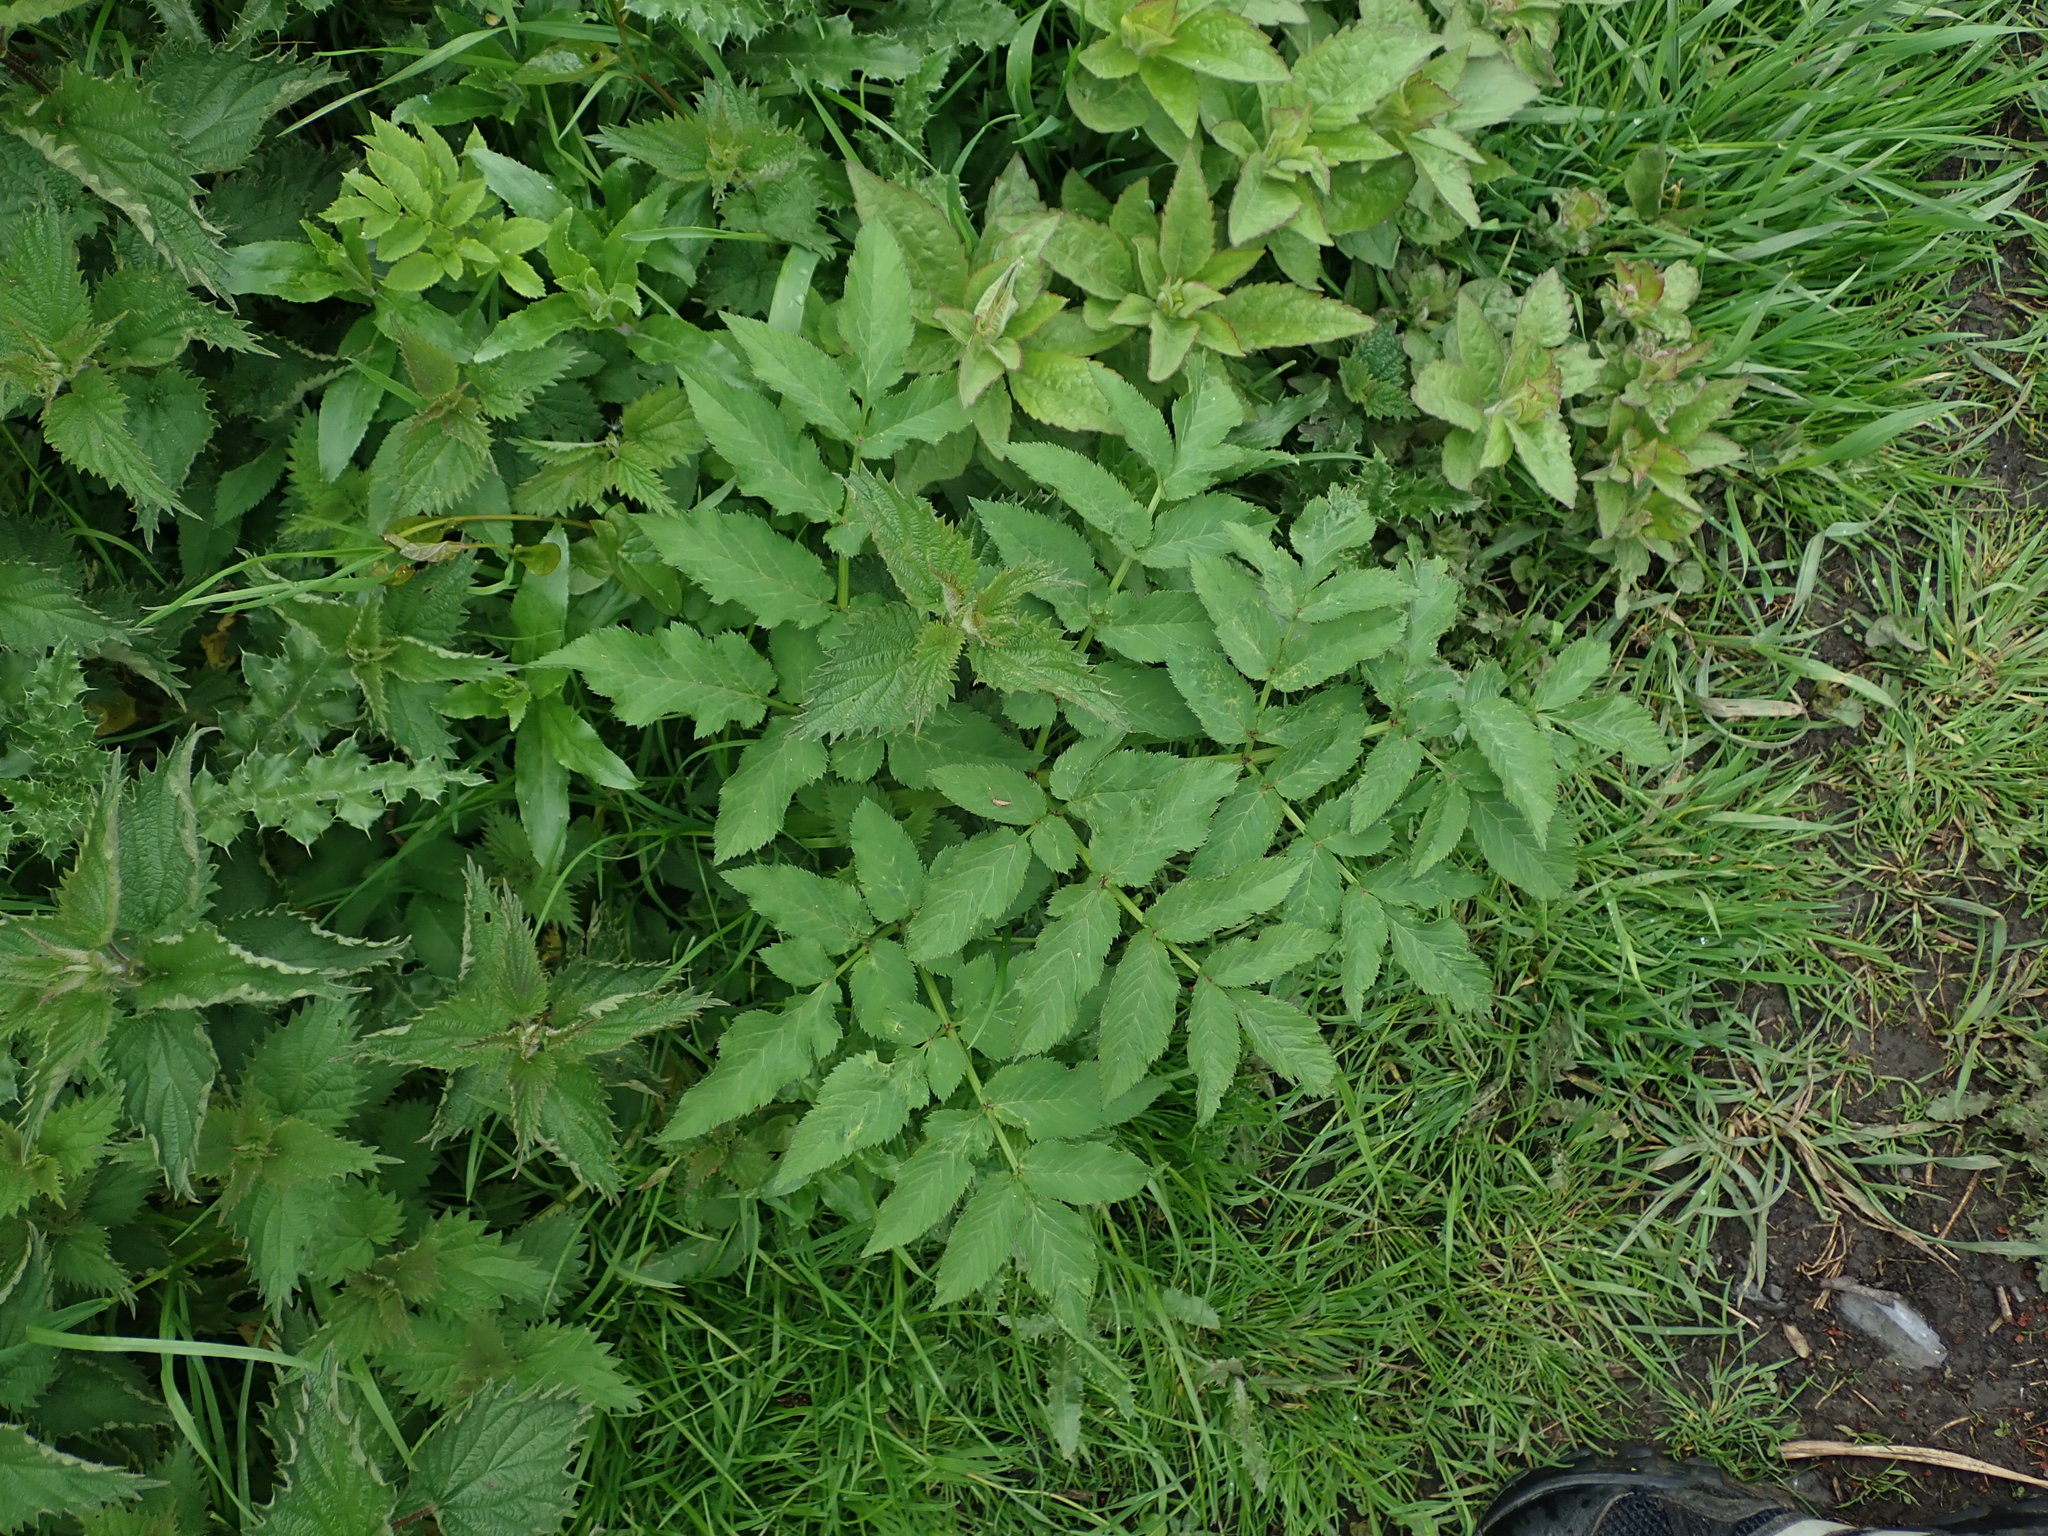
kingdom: Plantae
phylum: Tracheophyta
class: Magnoliopsida
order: Apiales
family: Apiaceae
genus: Angelica
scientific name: Angelica sylvestris
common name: Wild angelica
